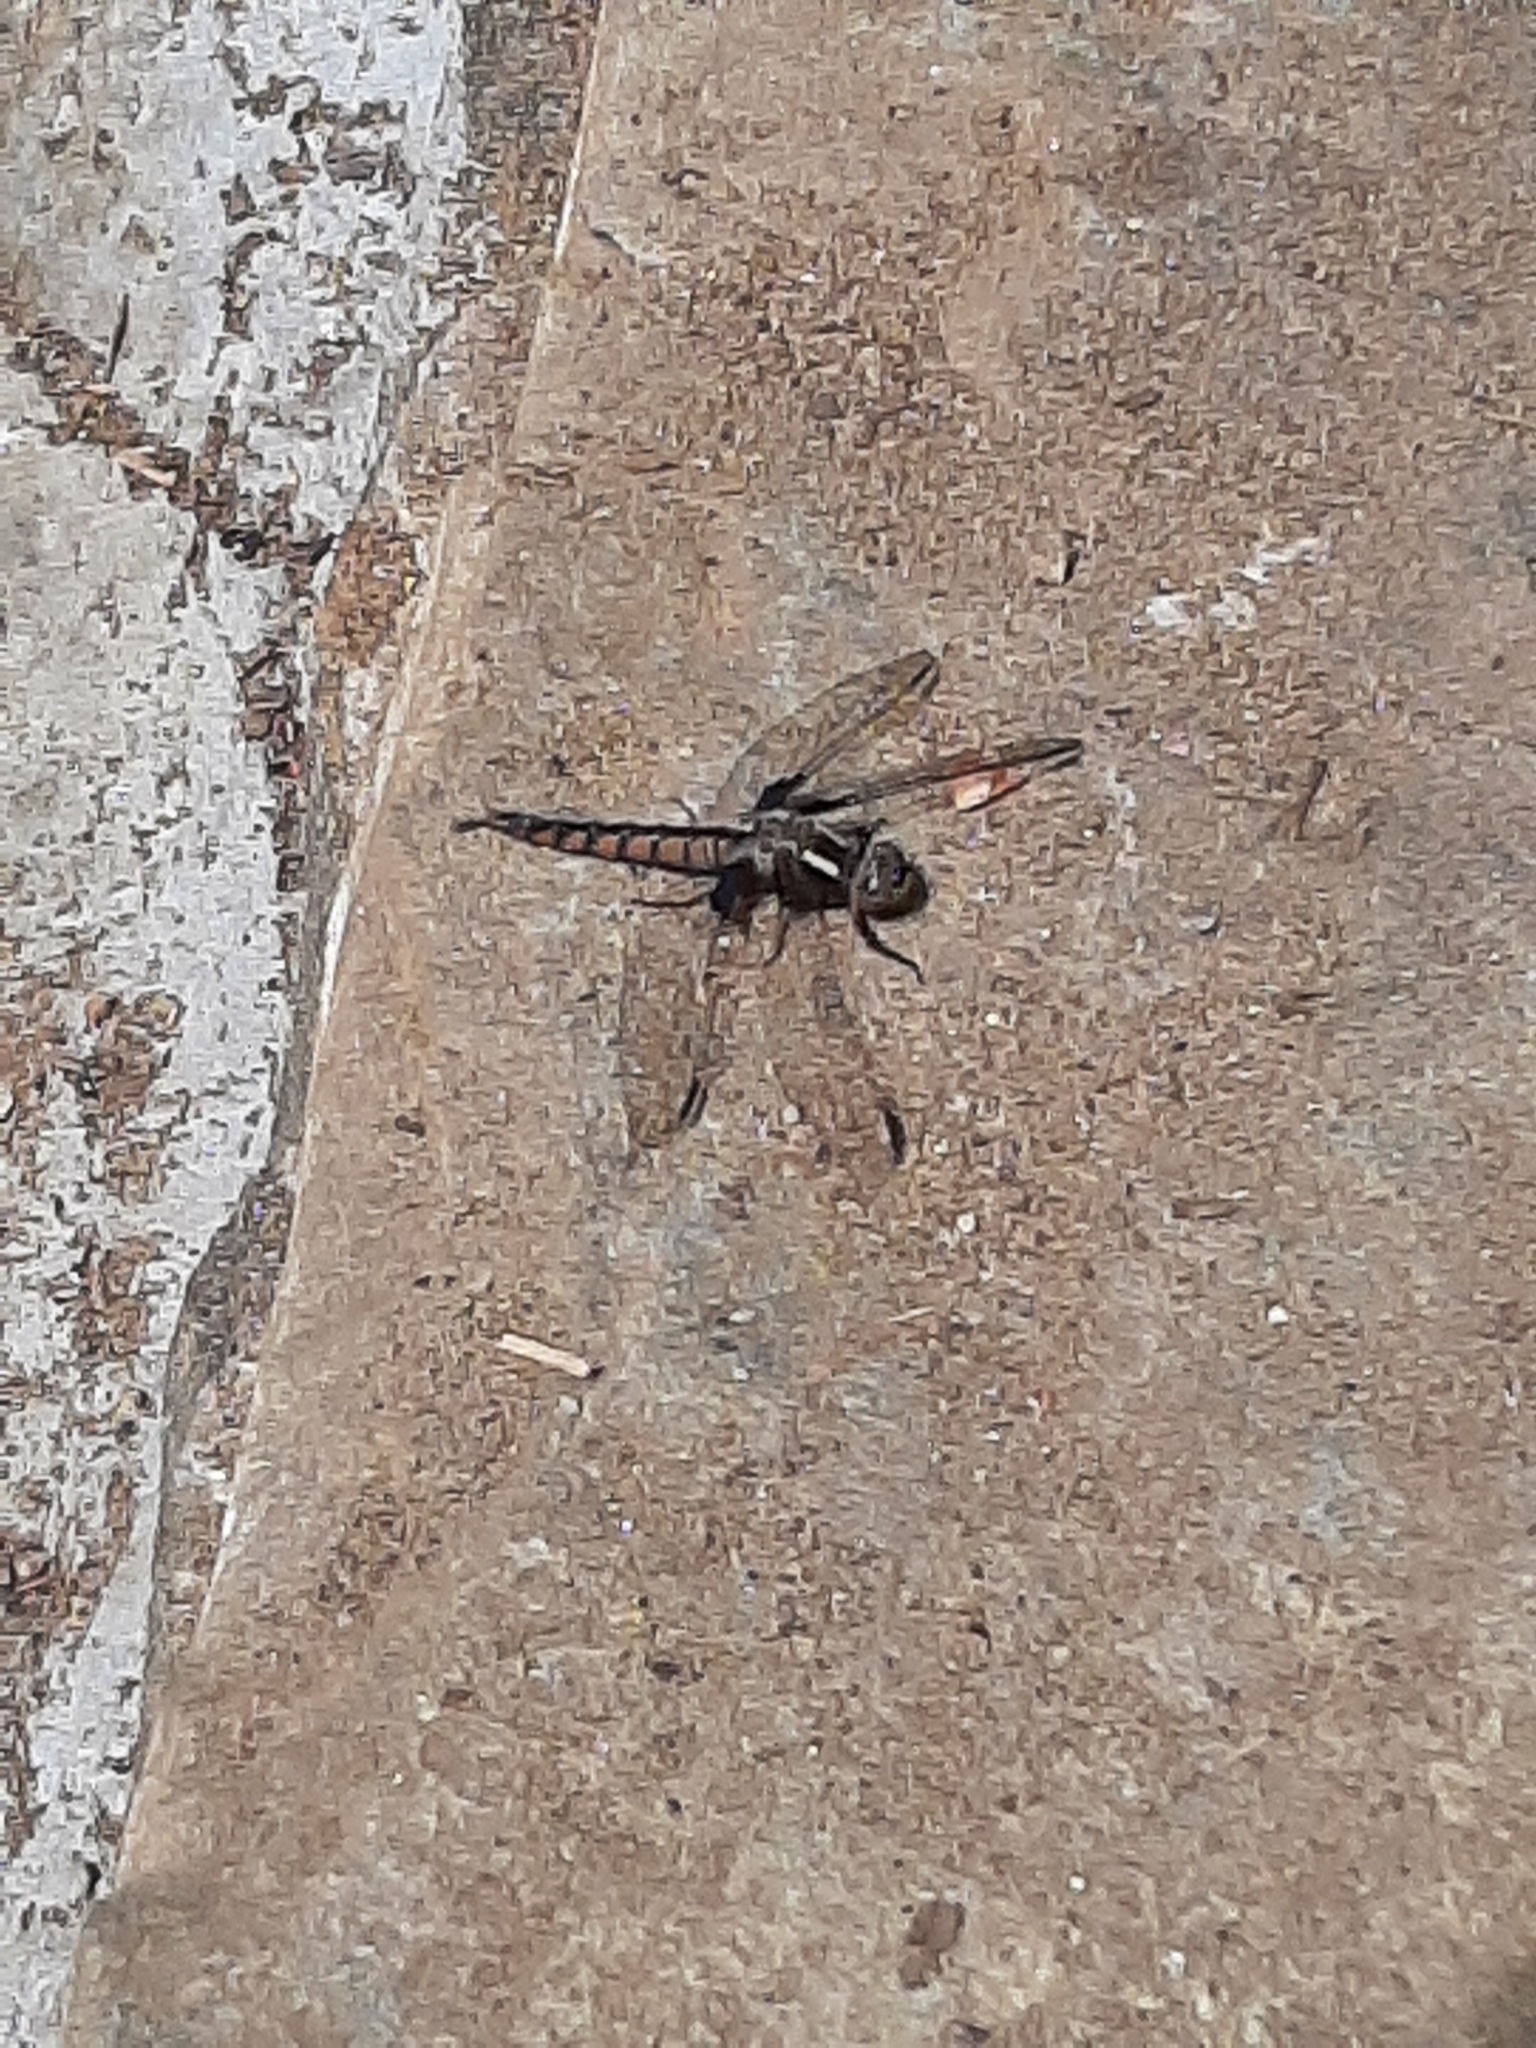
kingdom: Animalia
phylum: Arthropoda
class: Insecta
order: Odonata
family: Libellulidae
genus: Ladona
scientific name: Ladona deplanata
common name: Blue corporal
